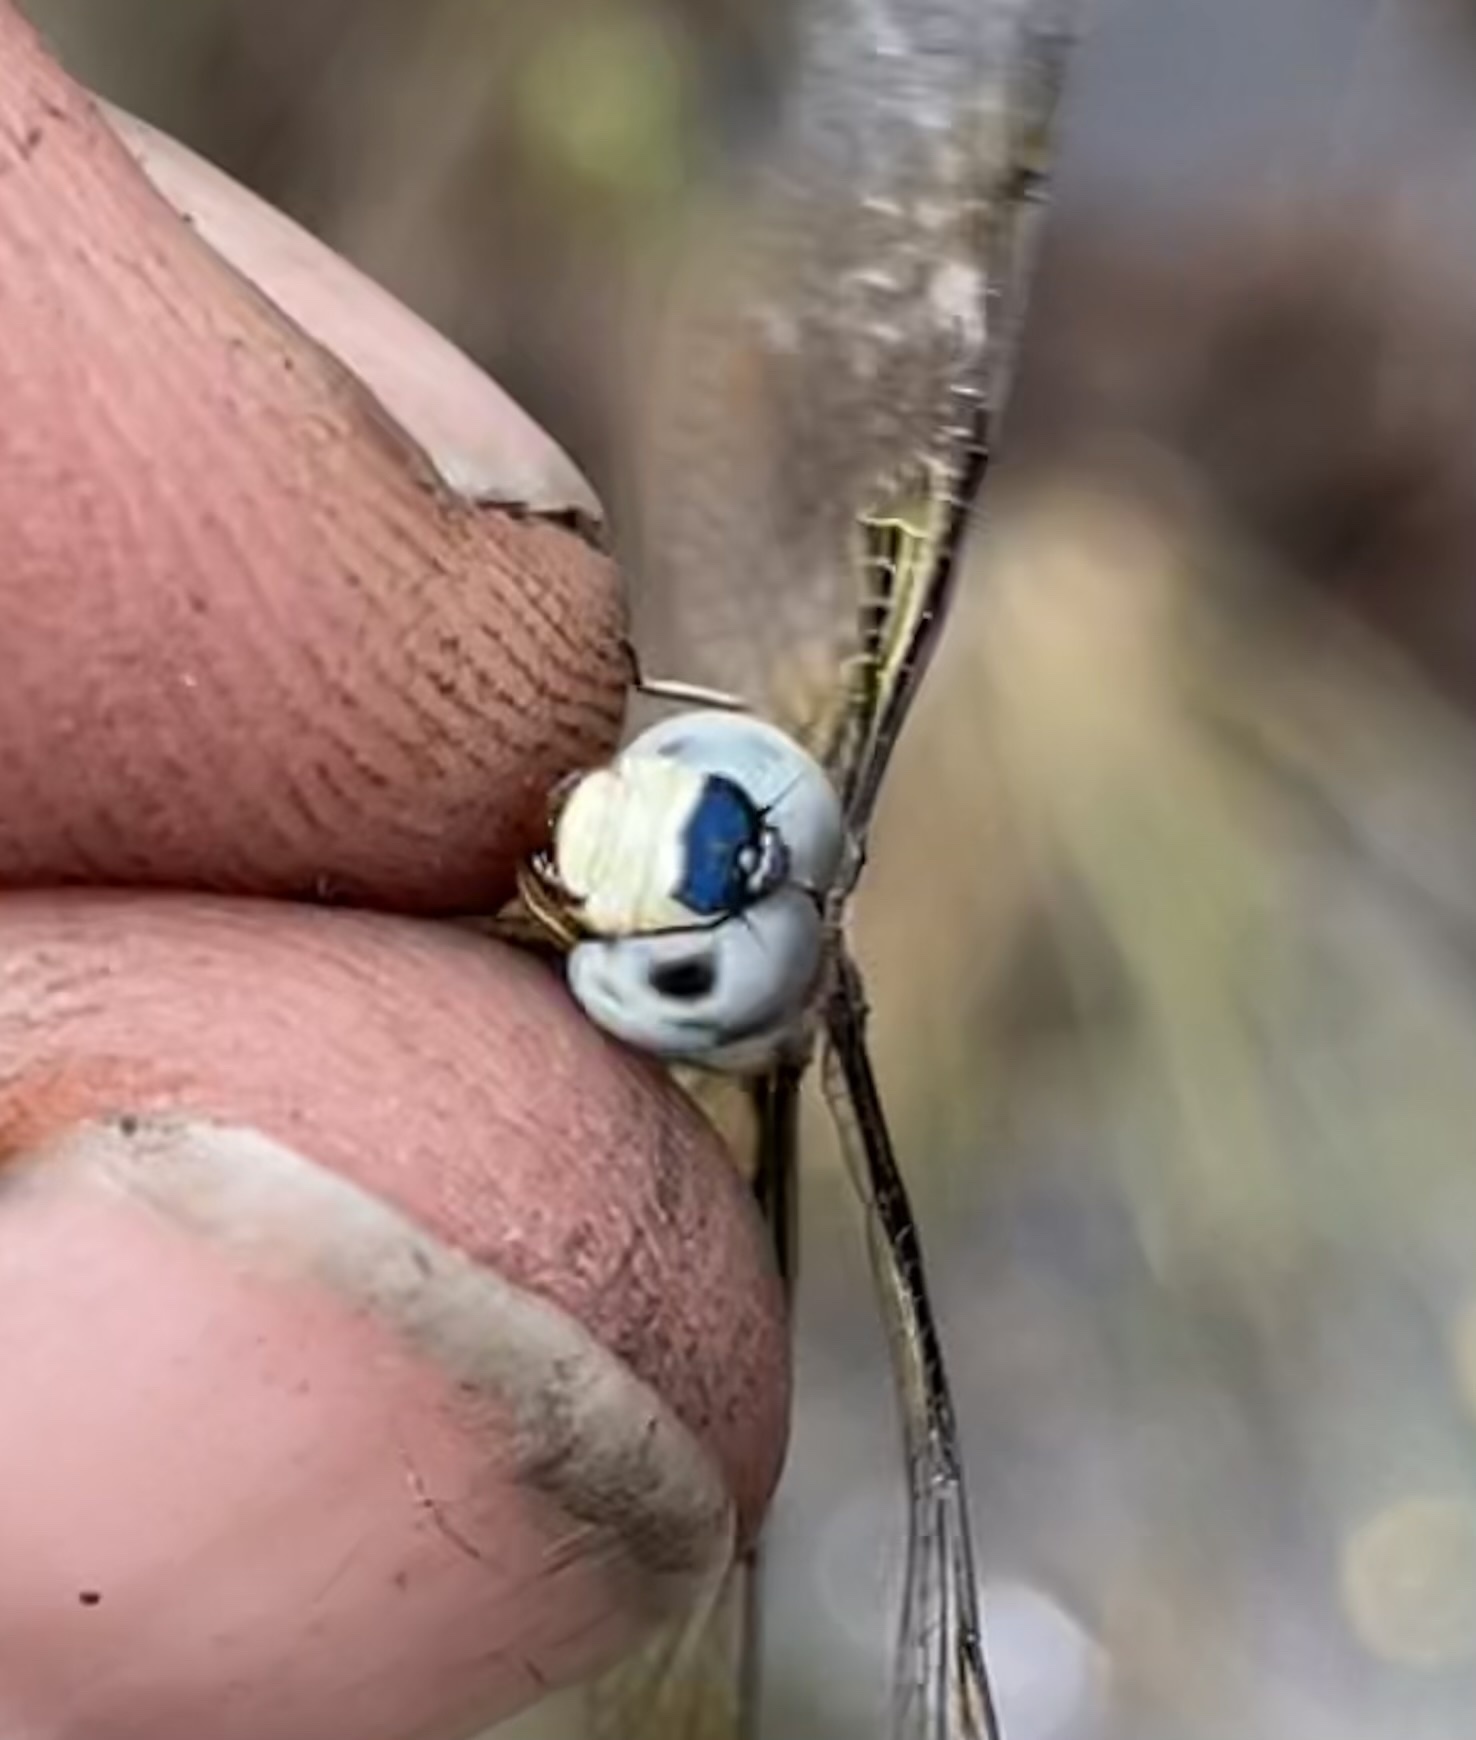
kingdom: Animalia
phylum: Arthropoda
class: Insecta
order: Odonata
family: Libellulidae
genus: Palpopleura
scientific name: Palpopleura jucunda
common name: Yellow-veined widow
